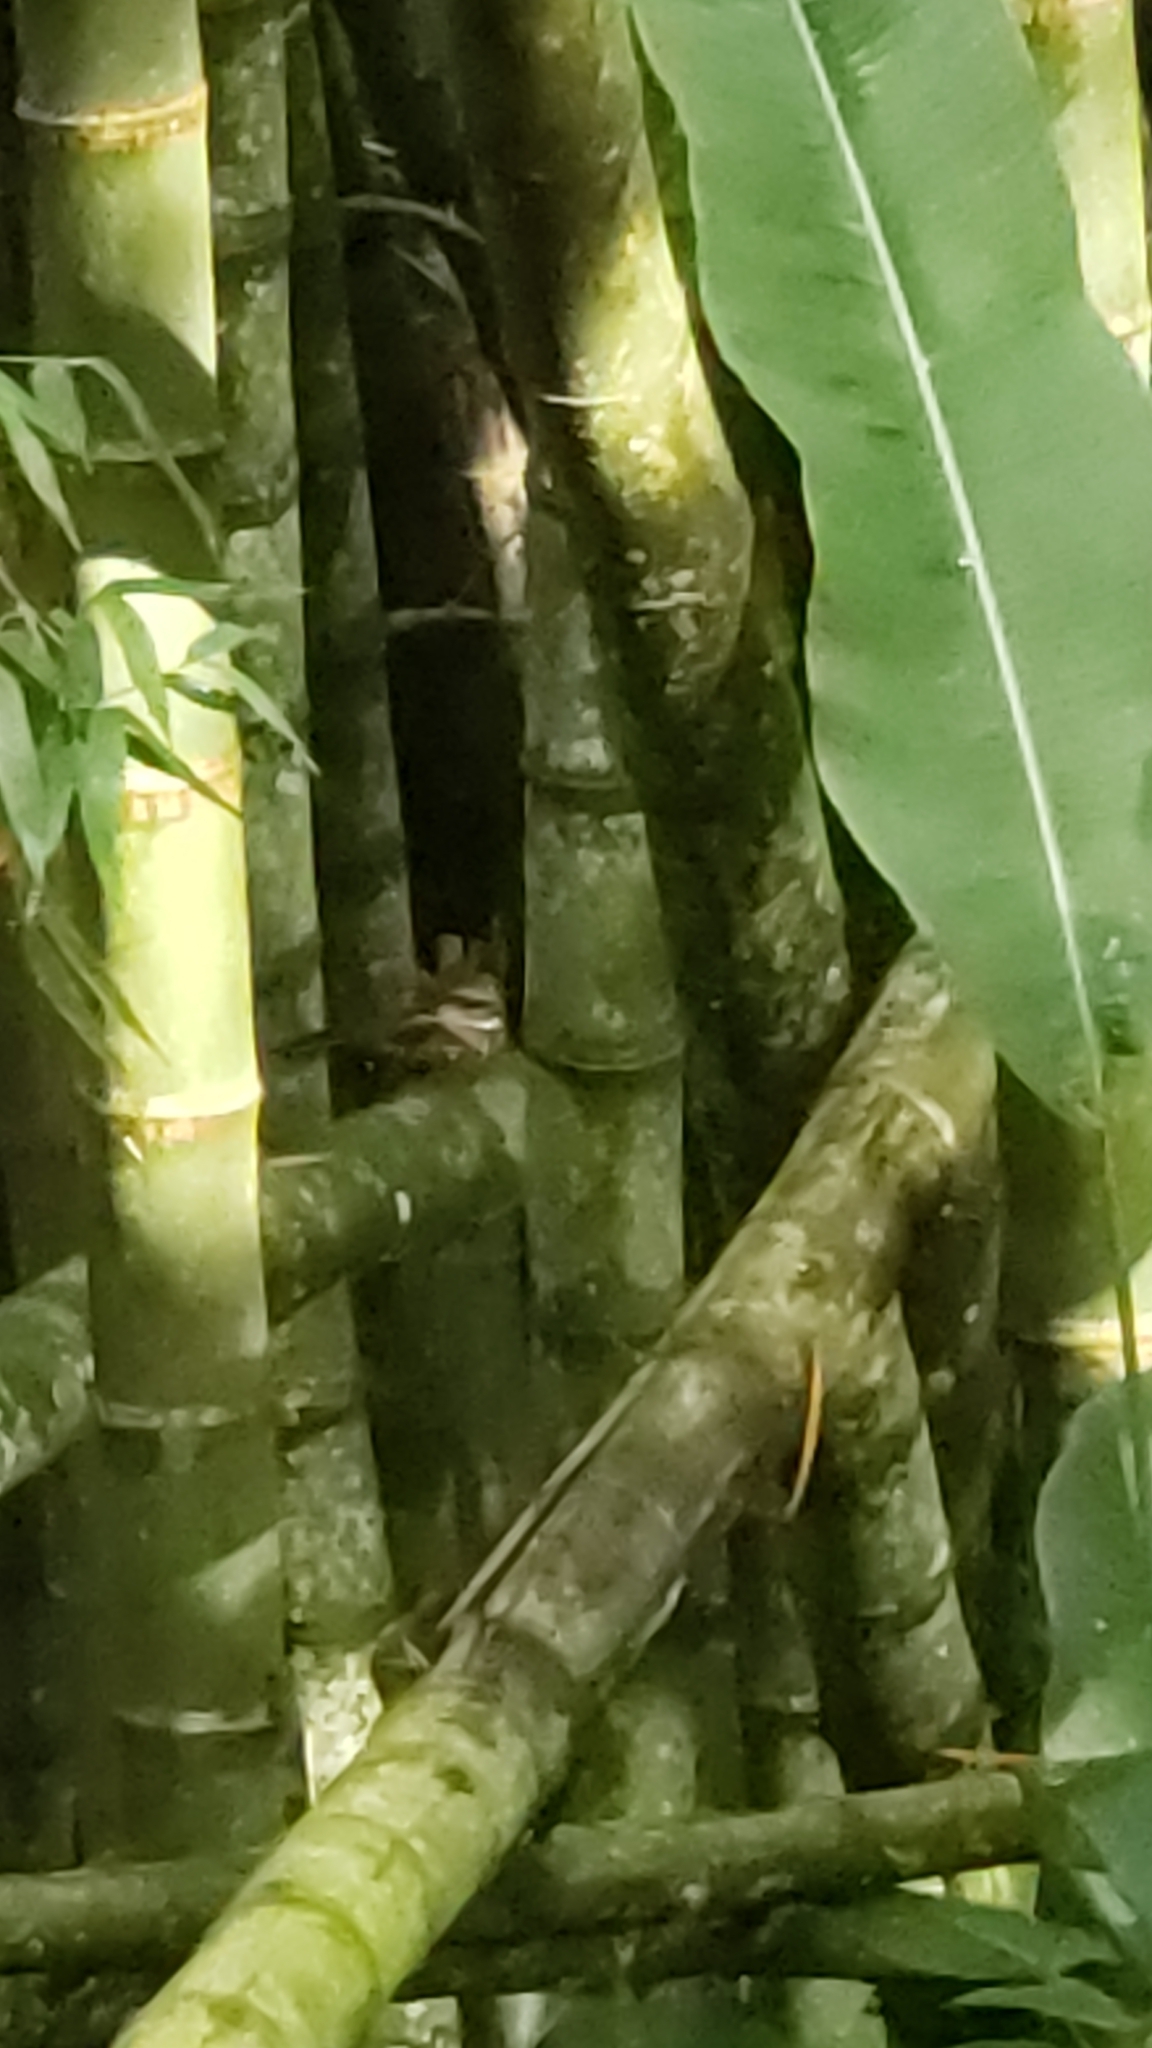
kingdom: Animalia
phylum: Chordata
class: Aves
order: Caprimulgiformes
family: Caprimulgidae
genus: Chordeiles
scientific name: Chordeiles minor
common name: Common nighthawk
